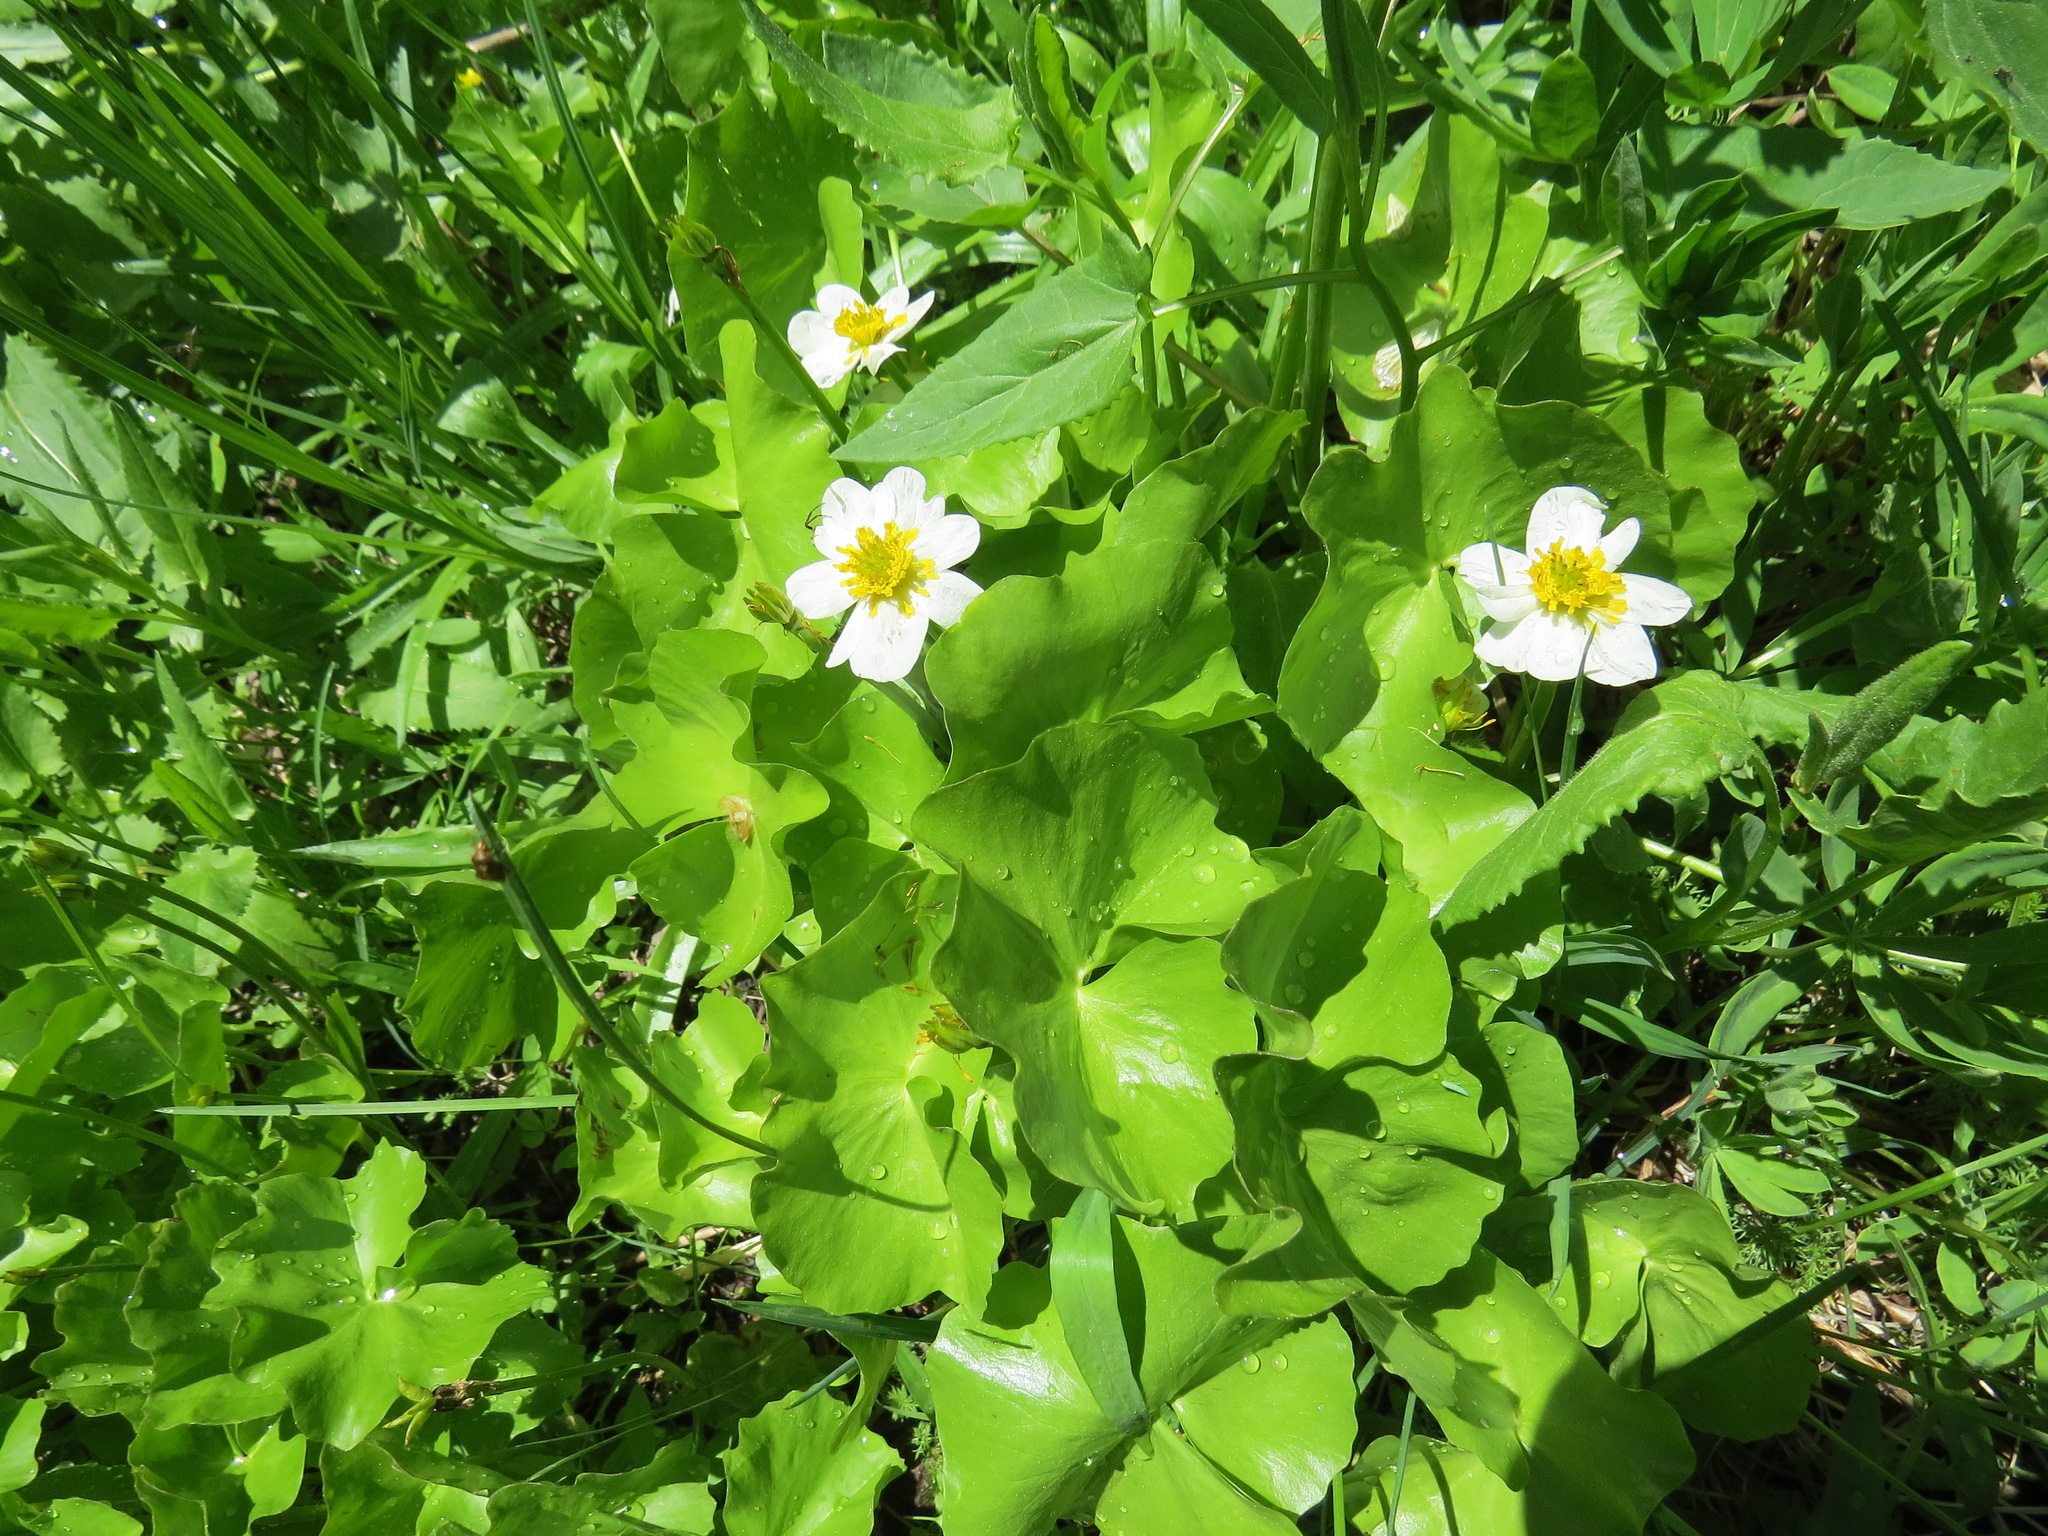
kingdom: Plantae
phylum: Tracheophyta
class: Magnoliopsida
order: Ranunculales
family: Ranunculaceae
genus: Caltha
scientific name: Caltha leptosepala
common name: Elkslip
